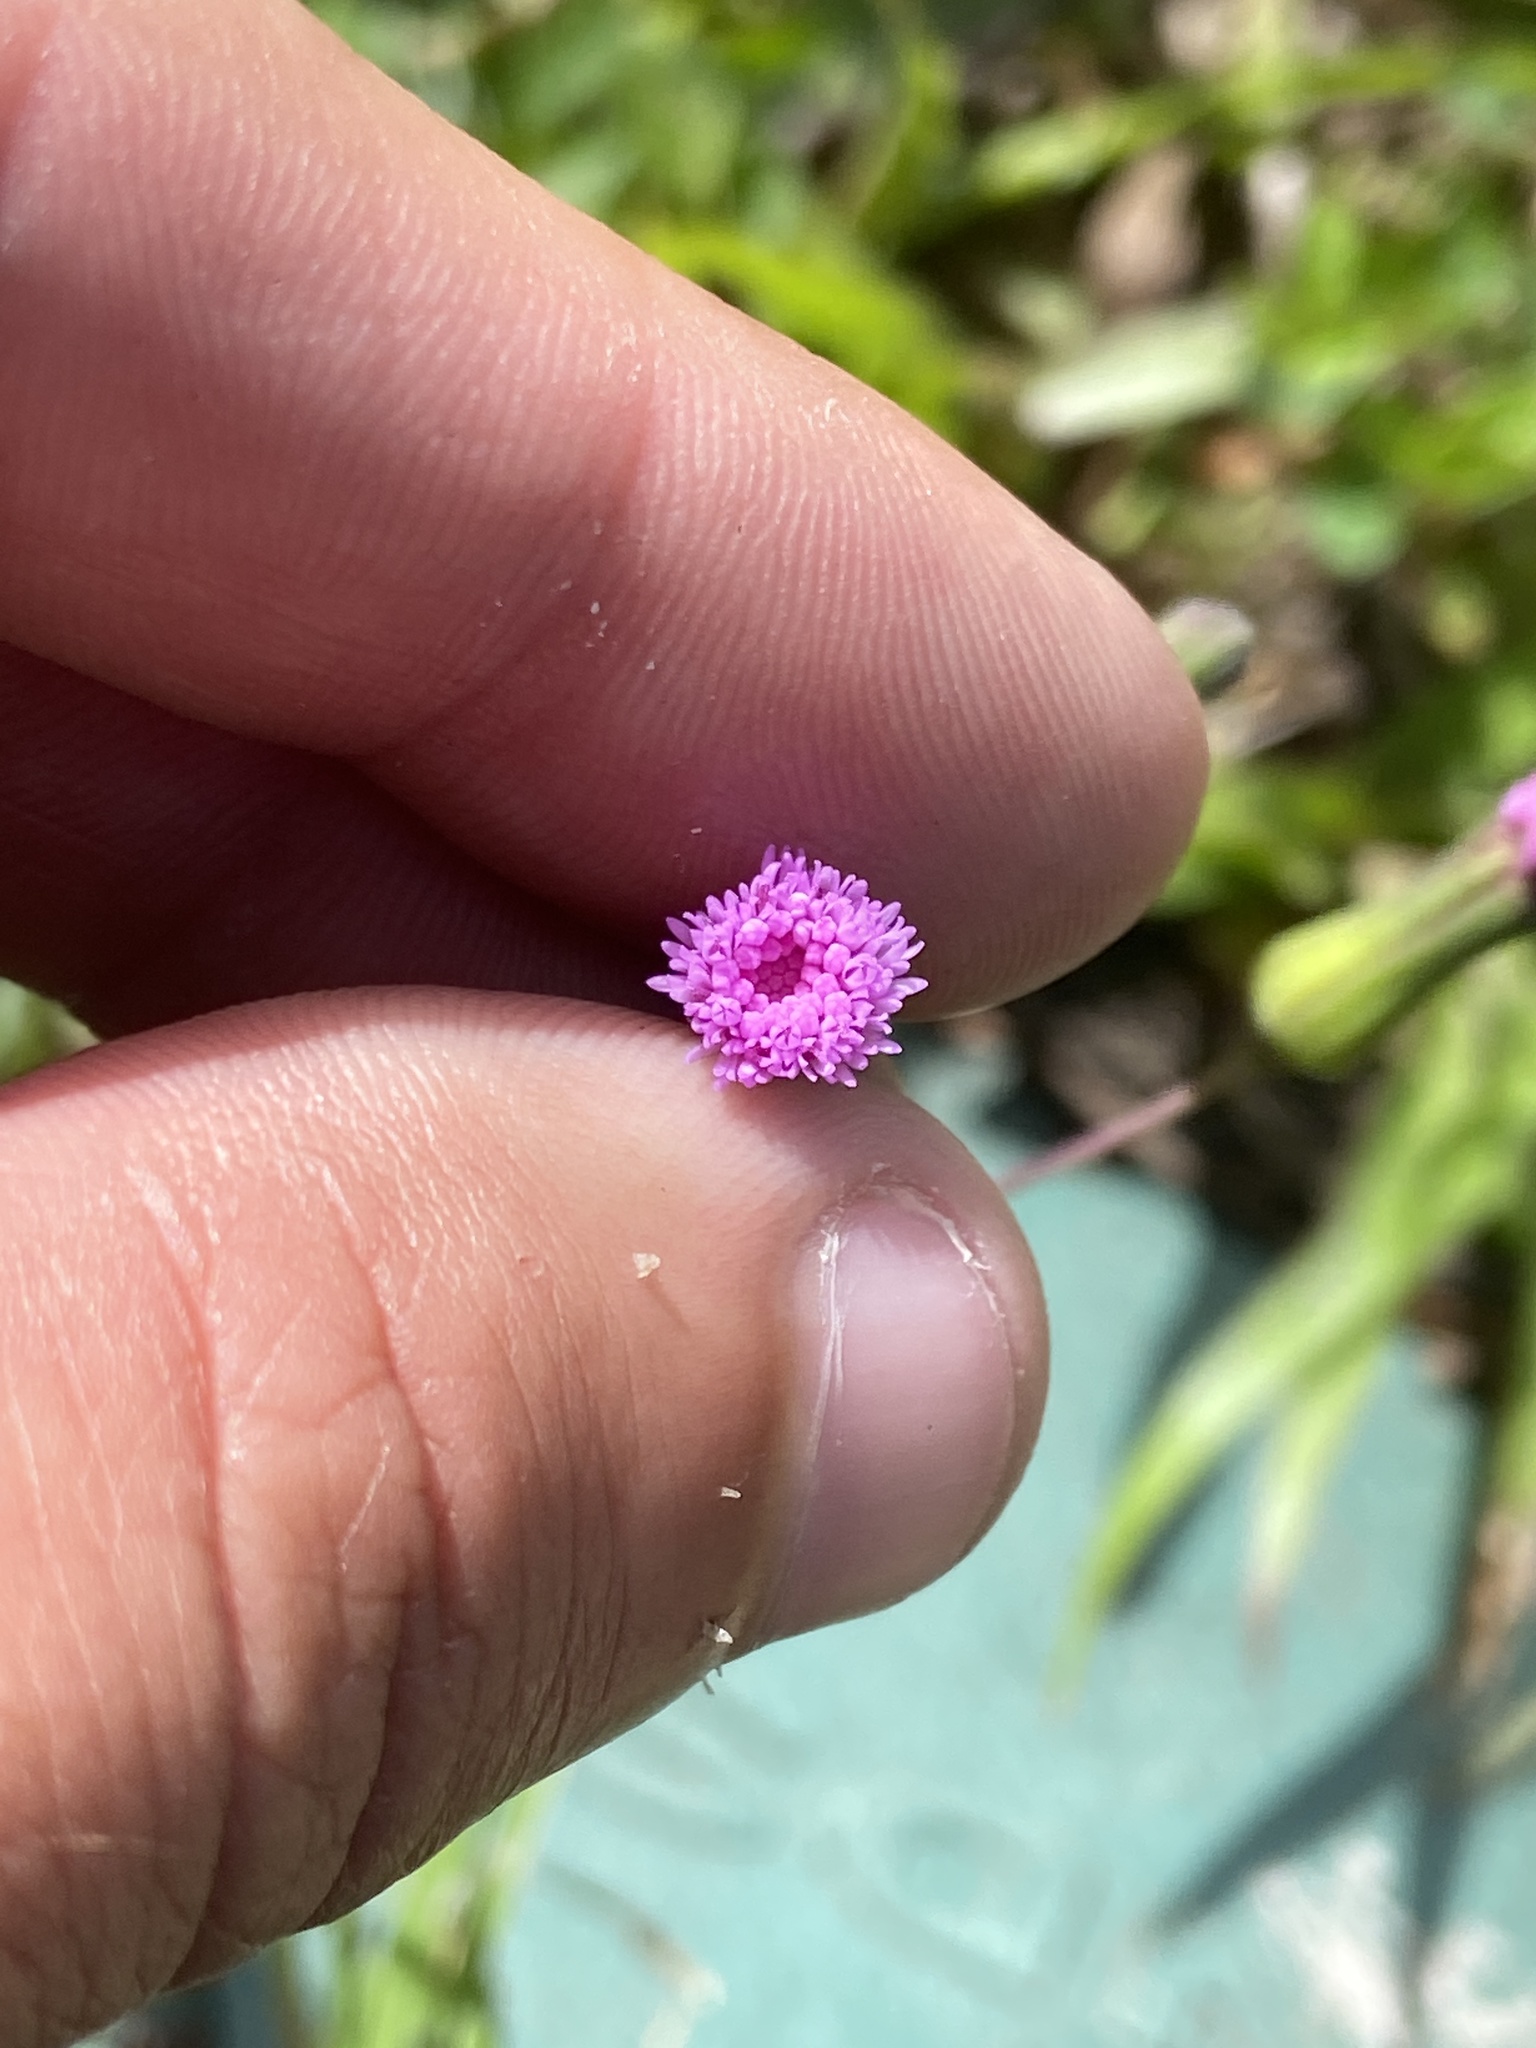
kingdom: Plantae
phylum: Tracheophyta
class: Magnoliopsida
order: Asterales
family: Asteraceae
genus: Emilia
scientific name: Emilia sonchifolia
